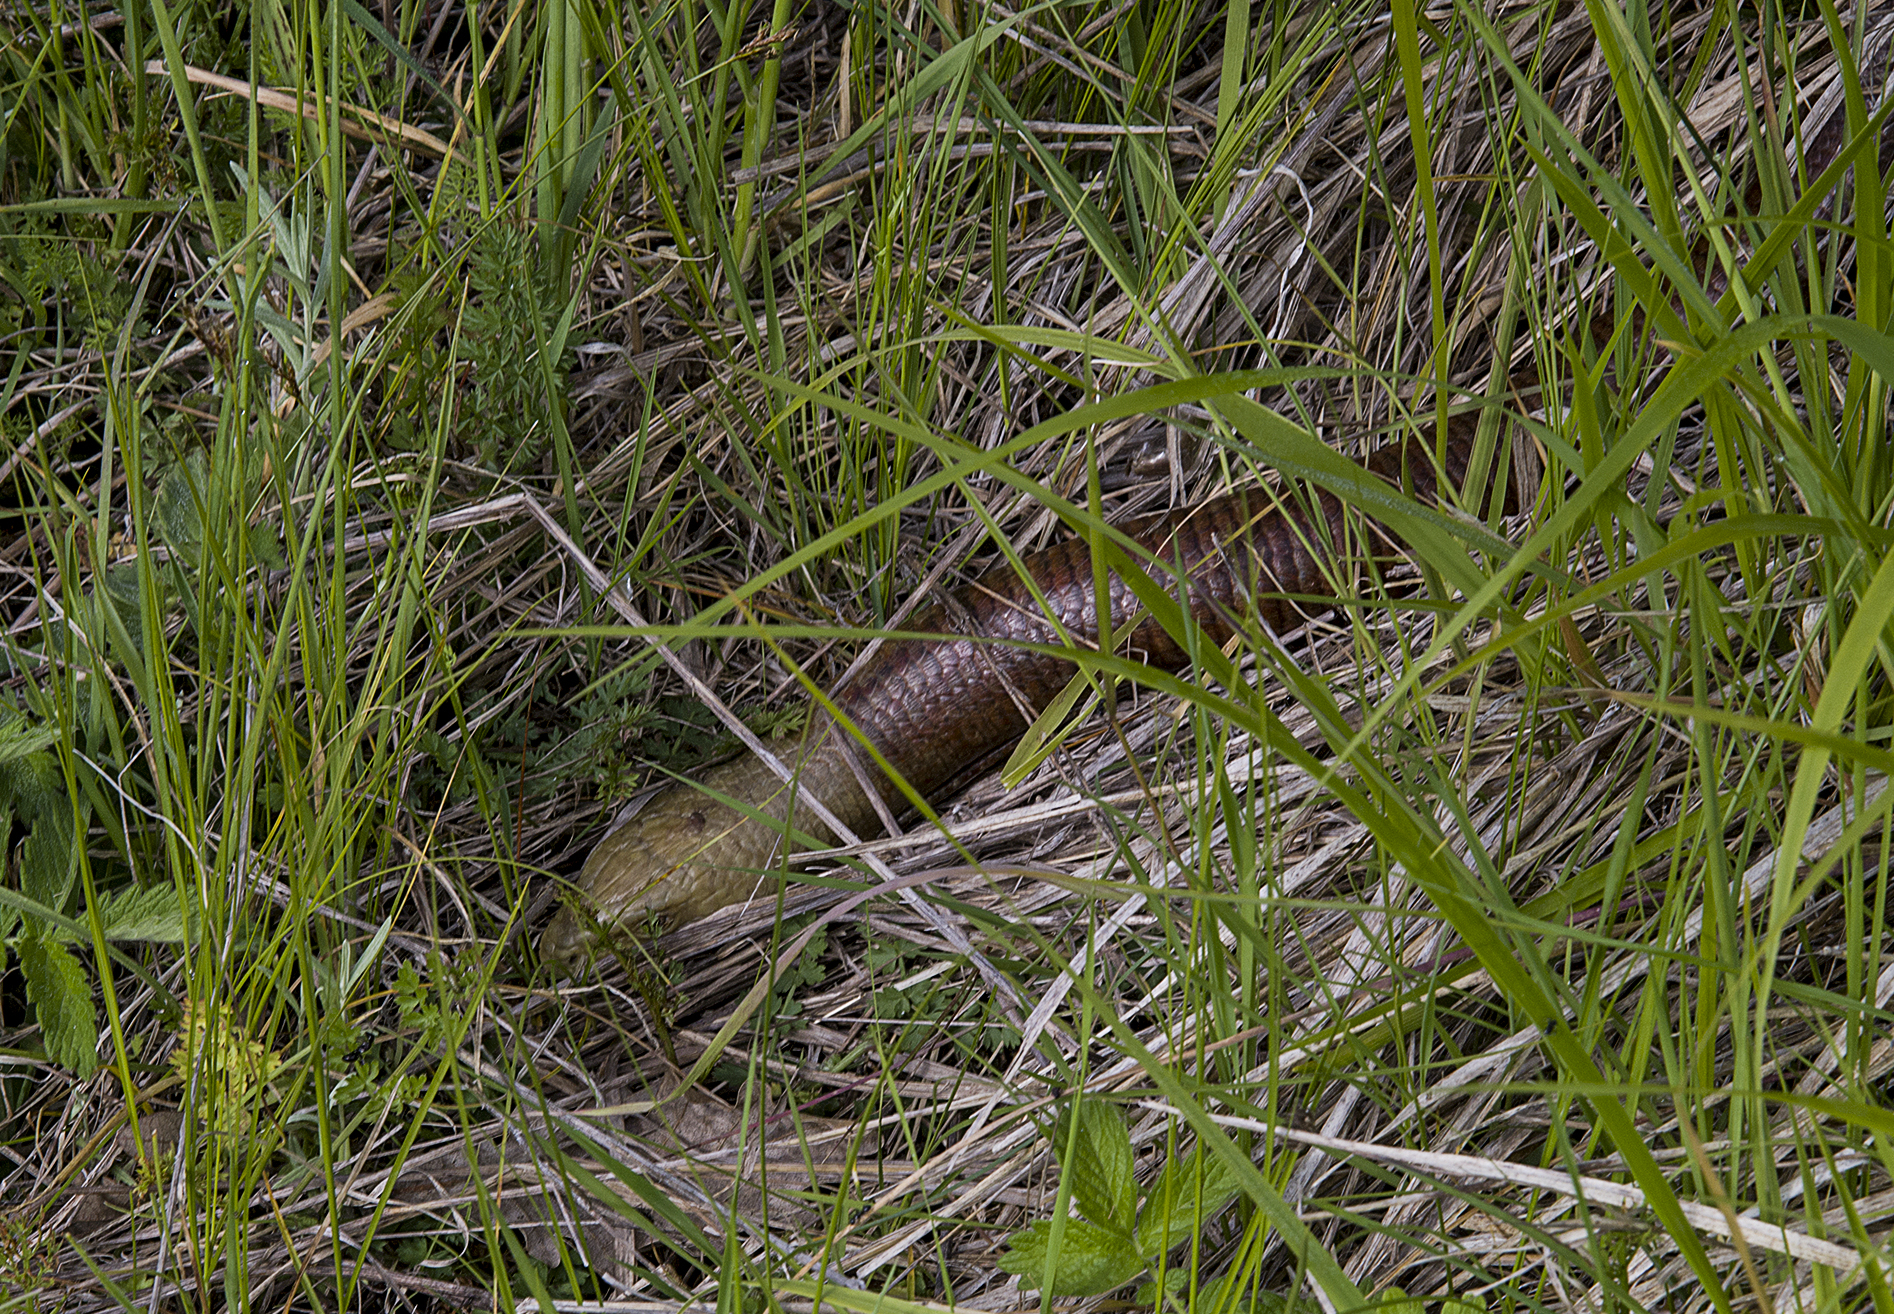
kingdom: Animalia
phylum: Chordata
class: Squamata
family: Anguidae
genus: Pseudopus
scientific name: Pseudopus apodus
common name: European glass lizard
